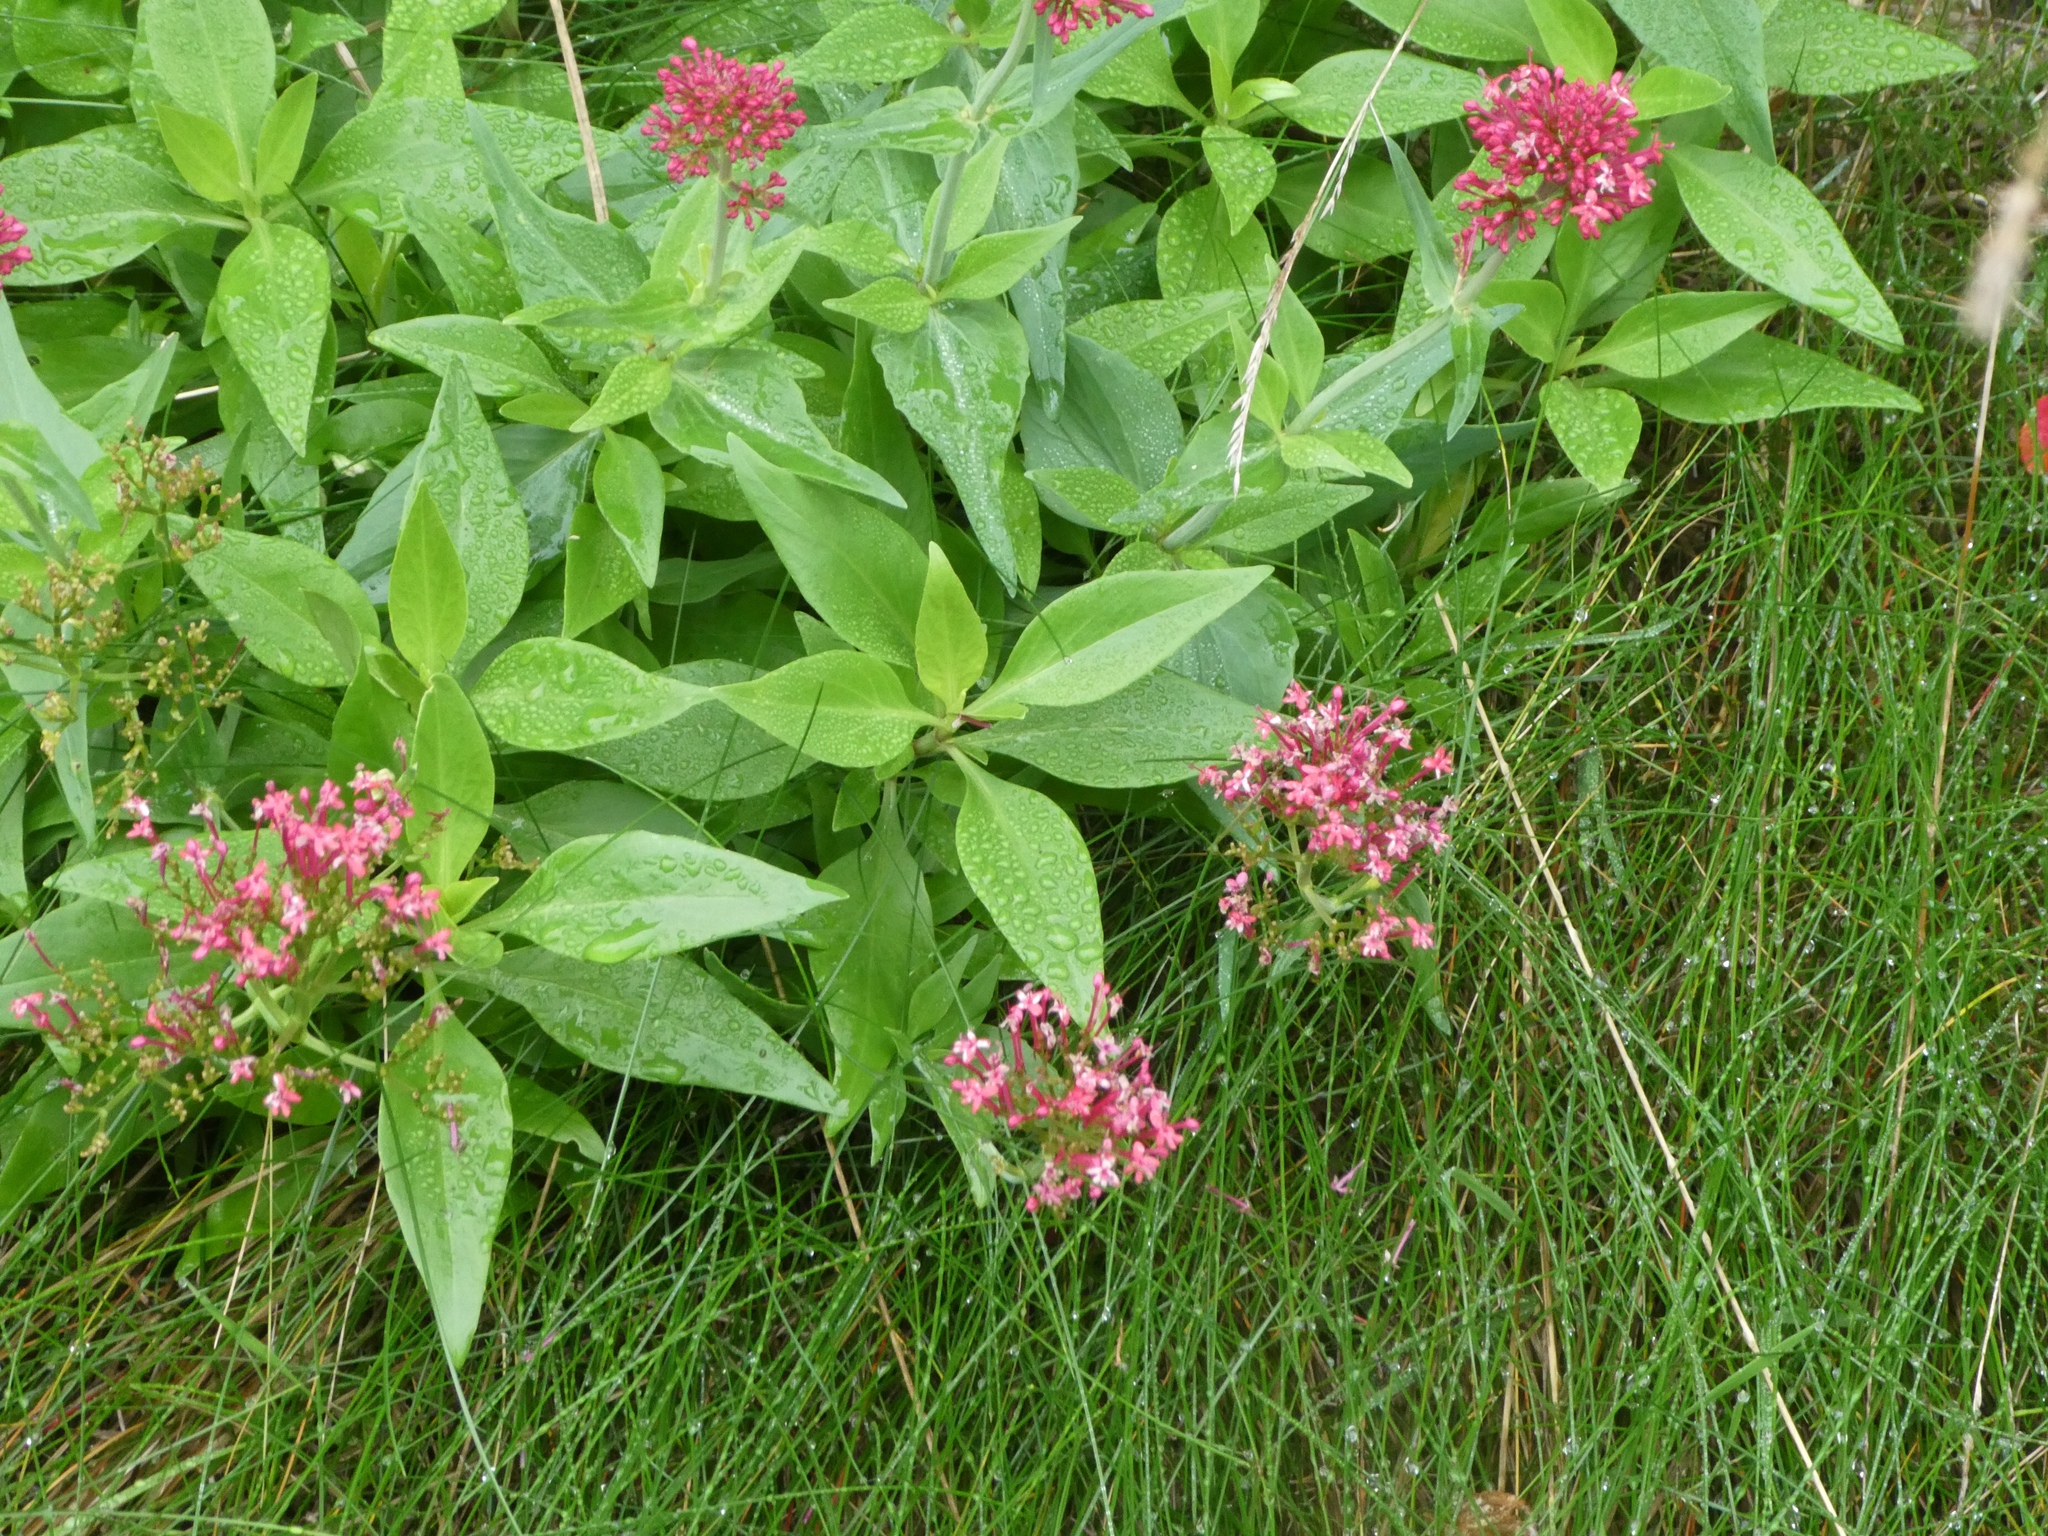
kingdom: Plantae
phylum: Tracheophyta
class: Magnoliopsida
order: Dipsacales
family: Caprifoliaceae
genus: Centranthus
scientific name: Centranthus ruber
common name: Red valerian
